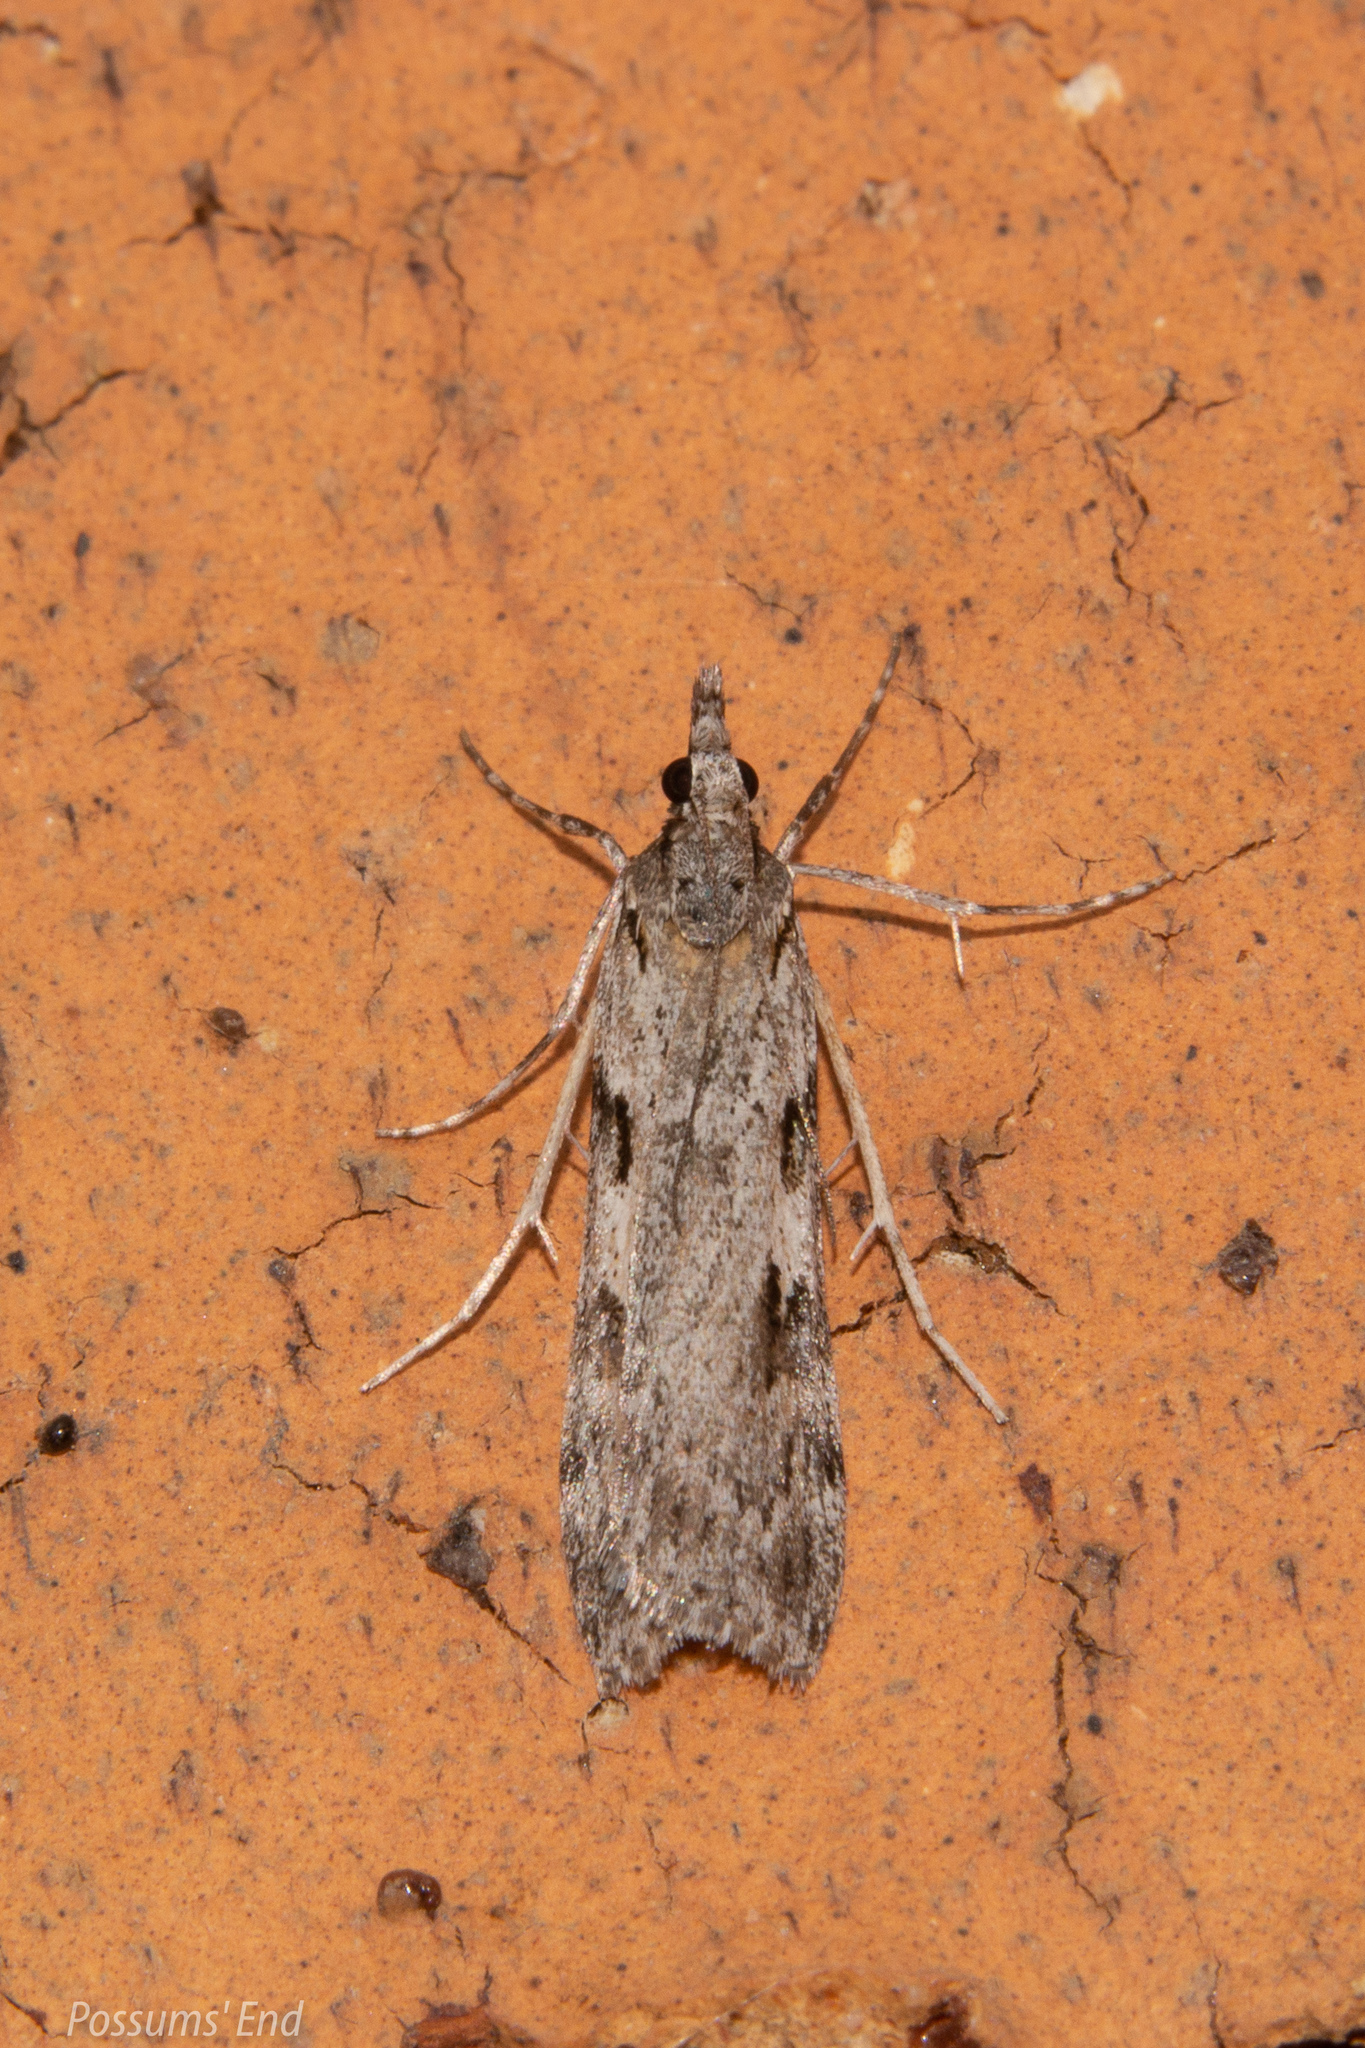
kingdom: Animalia
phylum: Arthropoda
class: Insecta
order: Lepidoptera
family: Crambidae
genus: Scoparia
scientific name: Scoparia halopis
